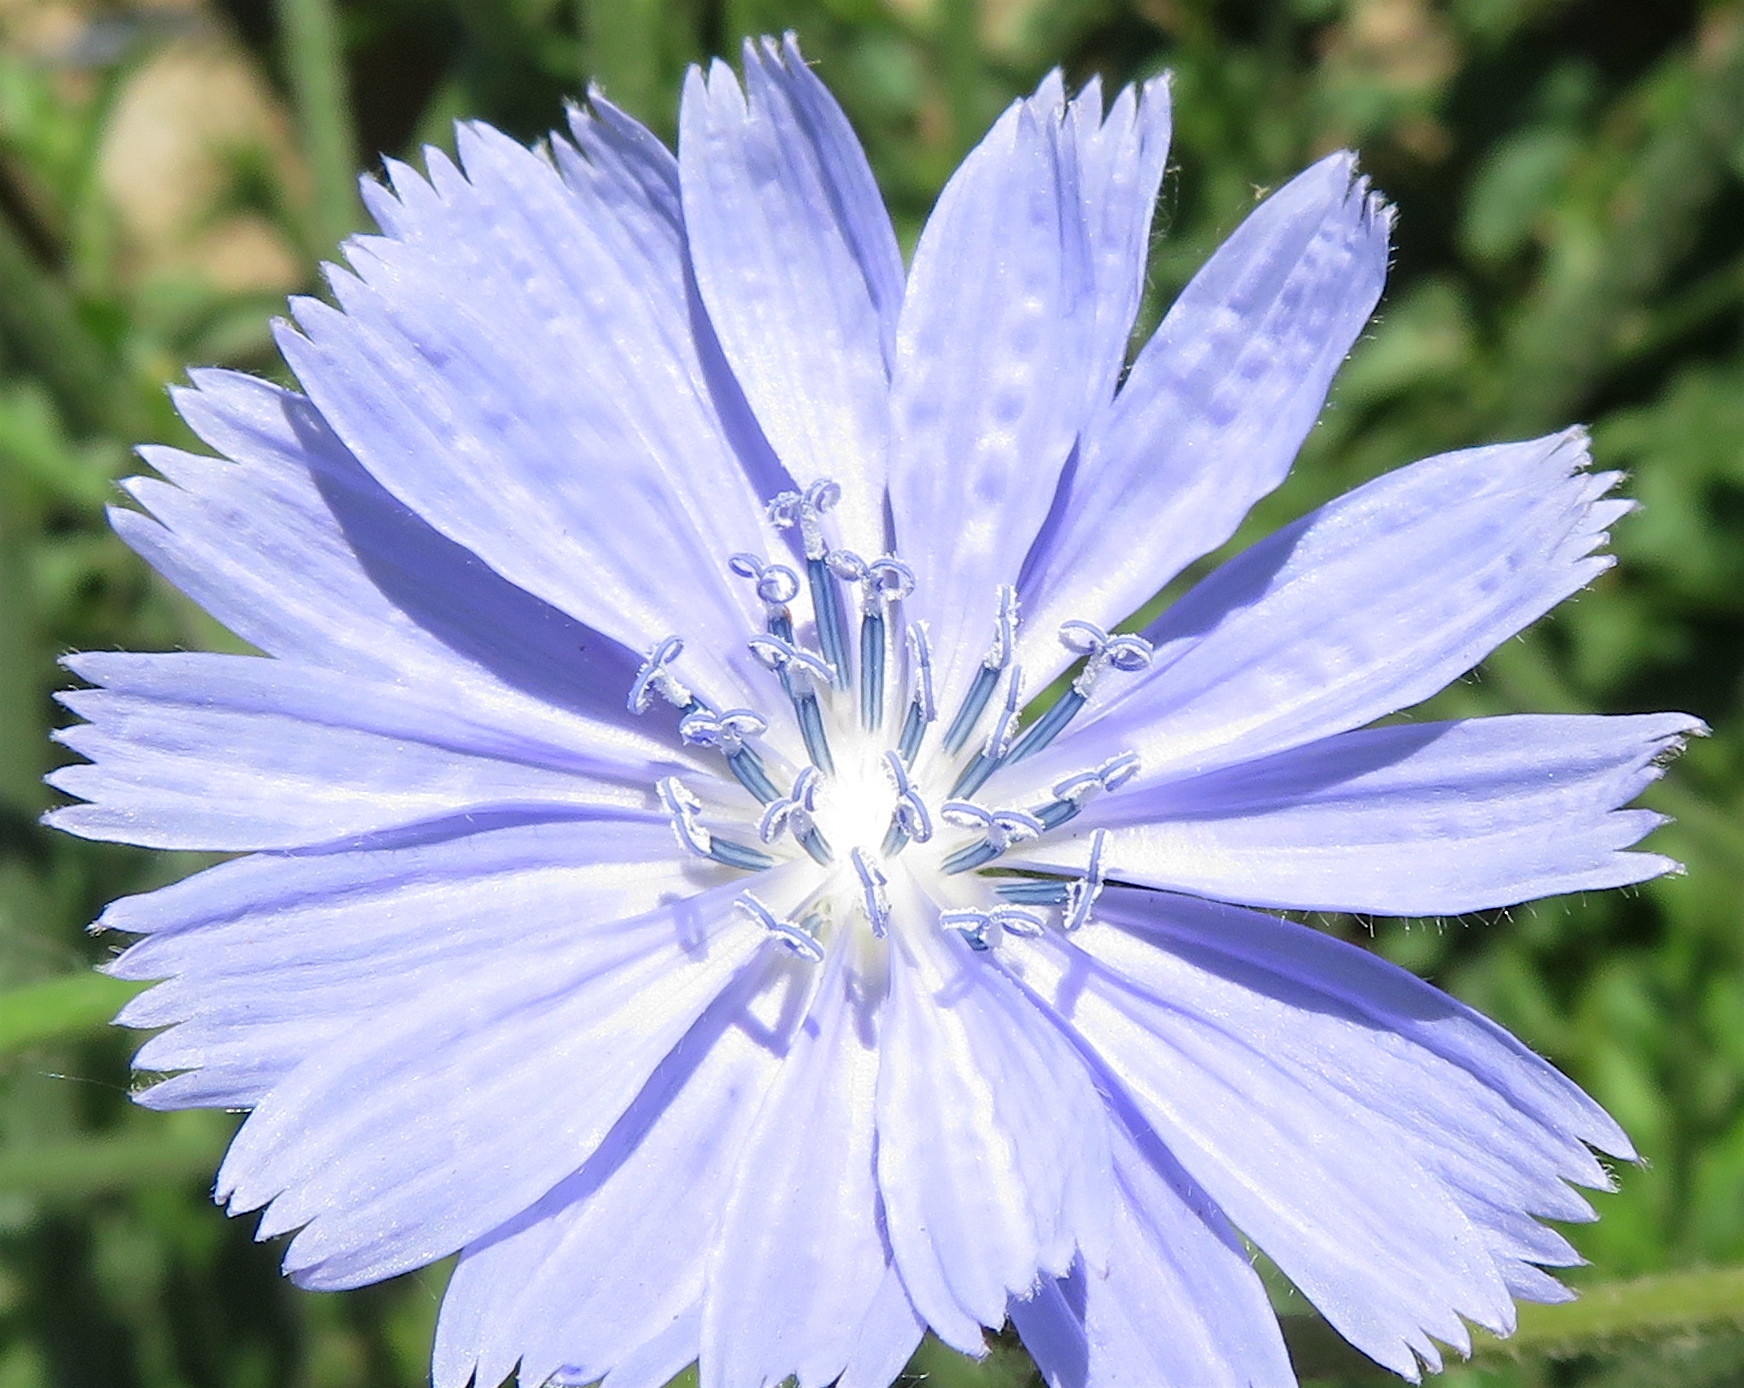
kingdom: Plantae
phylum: Tracheophyta
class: Magnoliopsida
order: Asterales
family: Asteraceae
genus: Cichorium
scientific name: Cichorium intybus
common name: Chicory
